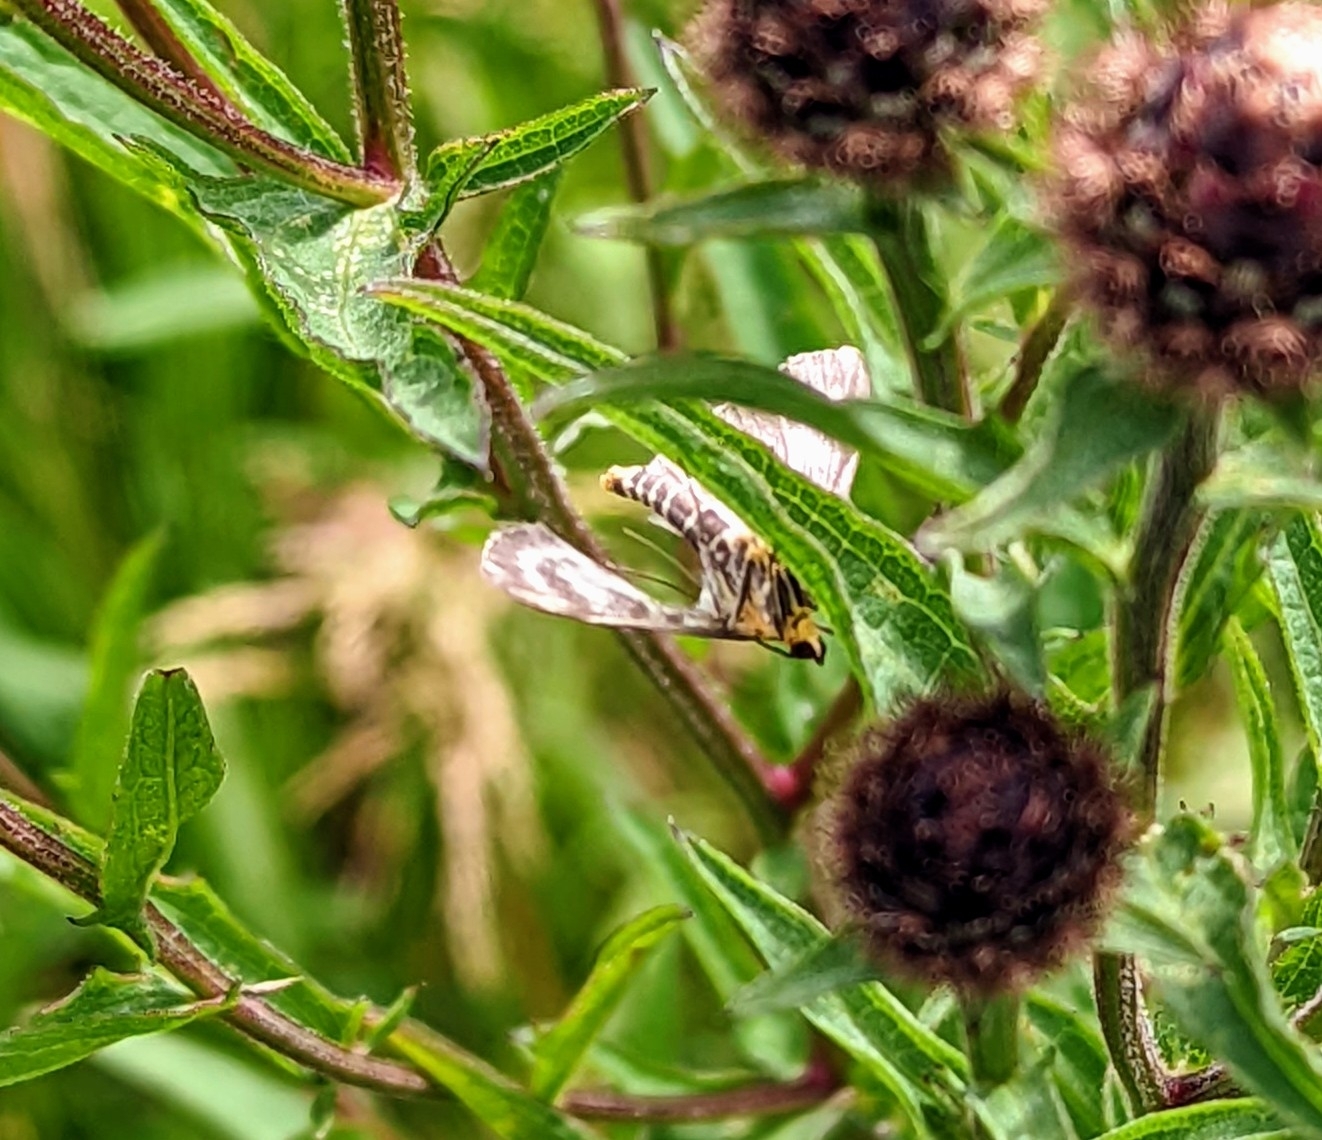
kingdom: Animalia
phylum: Arthropoda
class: Insecta
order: Lepidoptera
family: Crambidae
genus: Anania
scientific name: Anania hortulata
